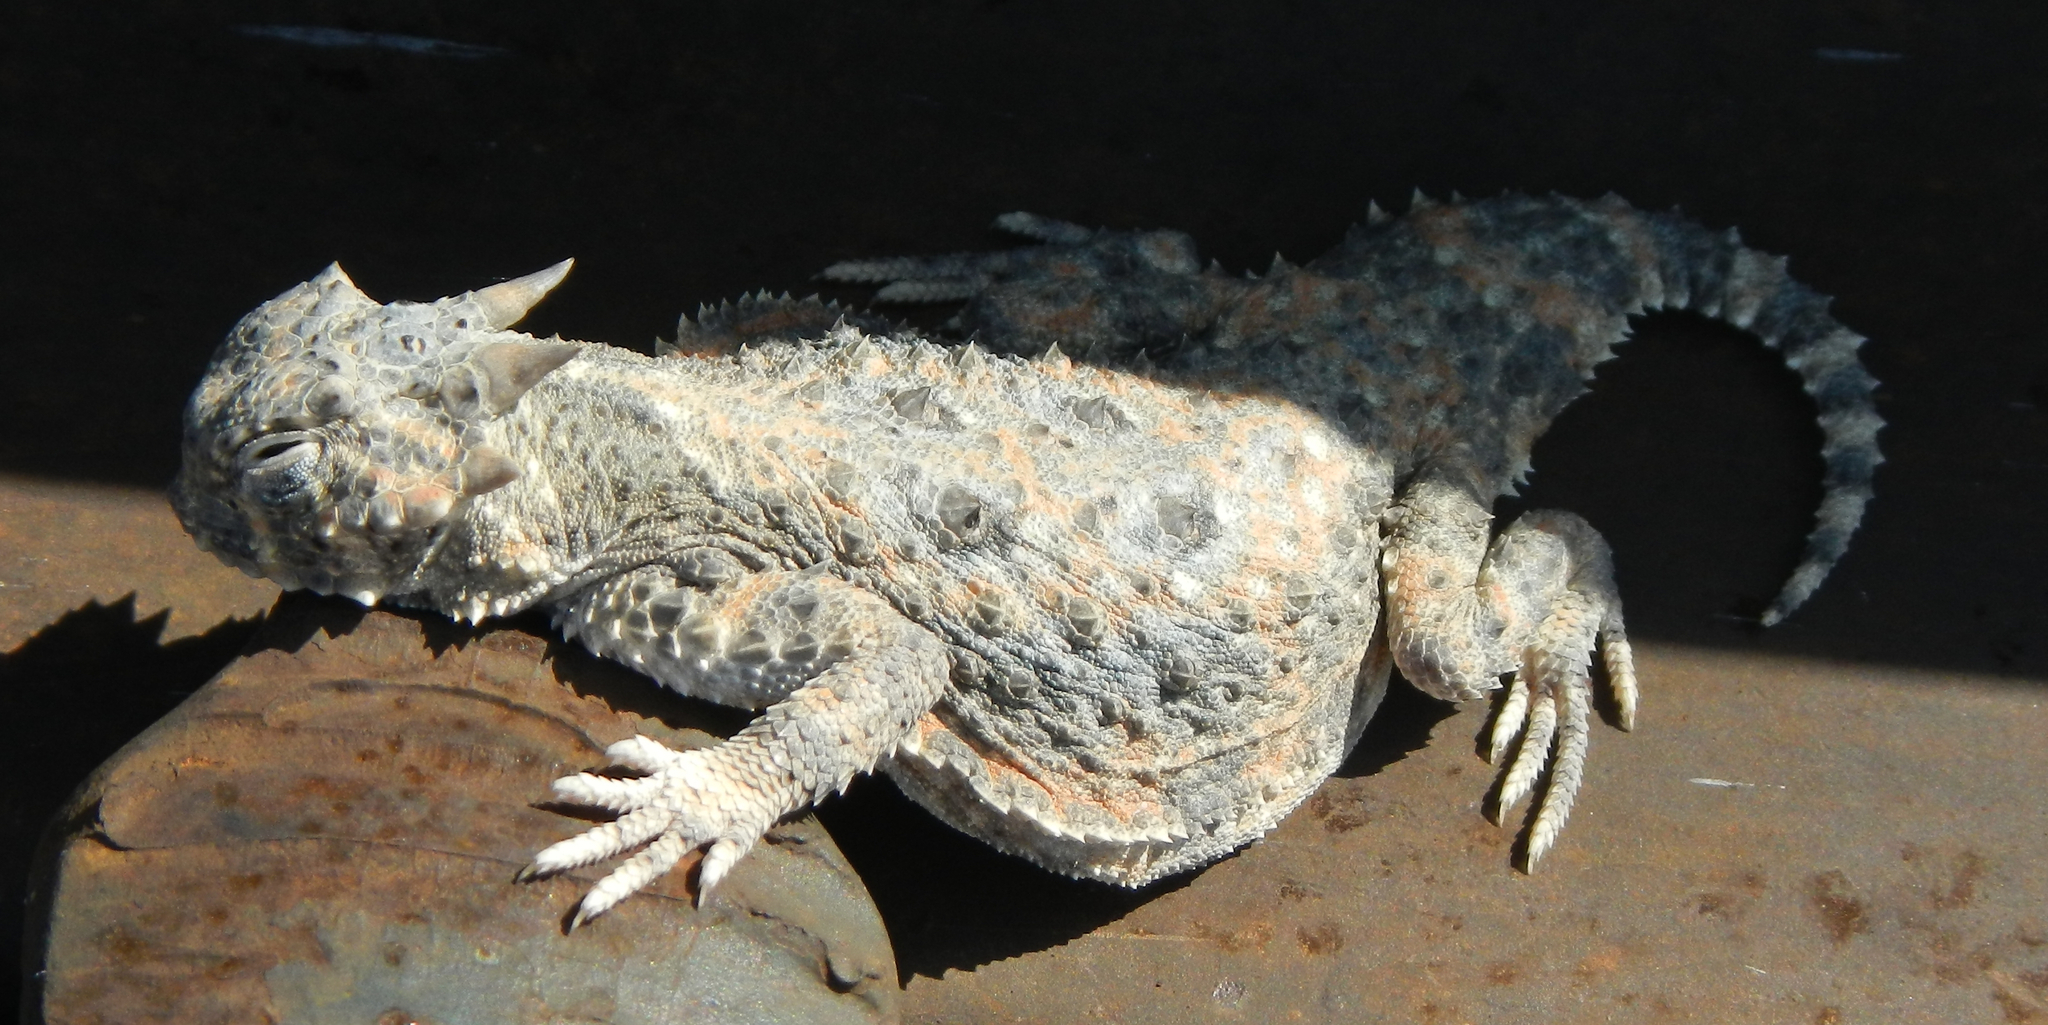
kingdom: Animalia
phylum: Chordata
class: Squamata
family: Phrynosomatidae
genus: Phrynosoma
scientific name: Phrynosoma platyrhinos
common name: Desert horned lizard
